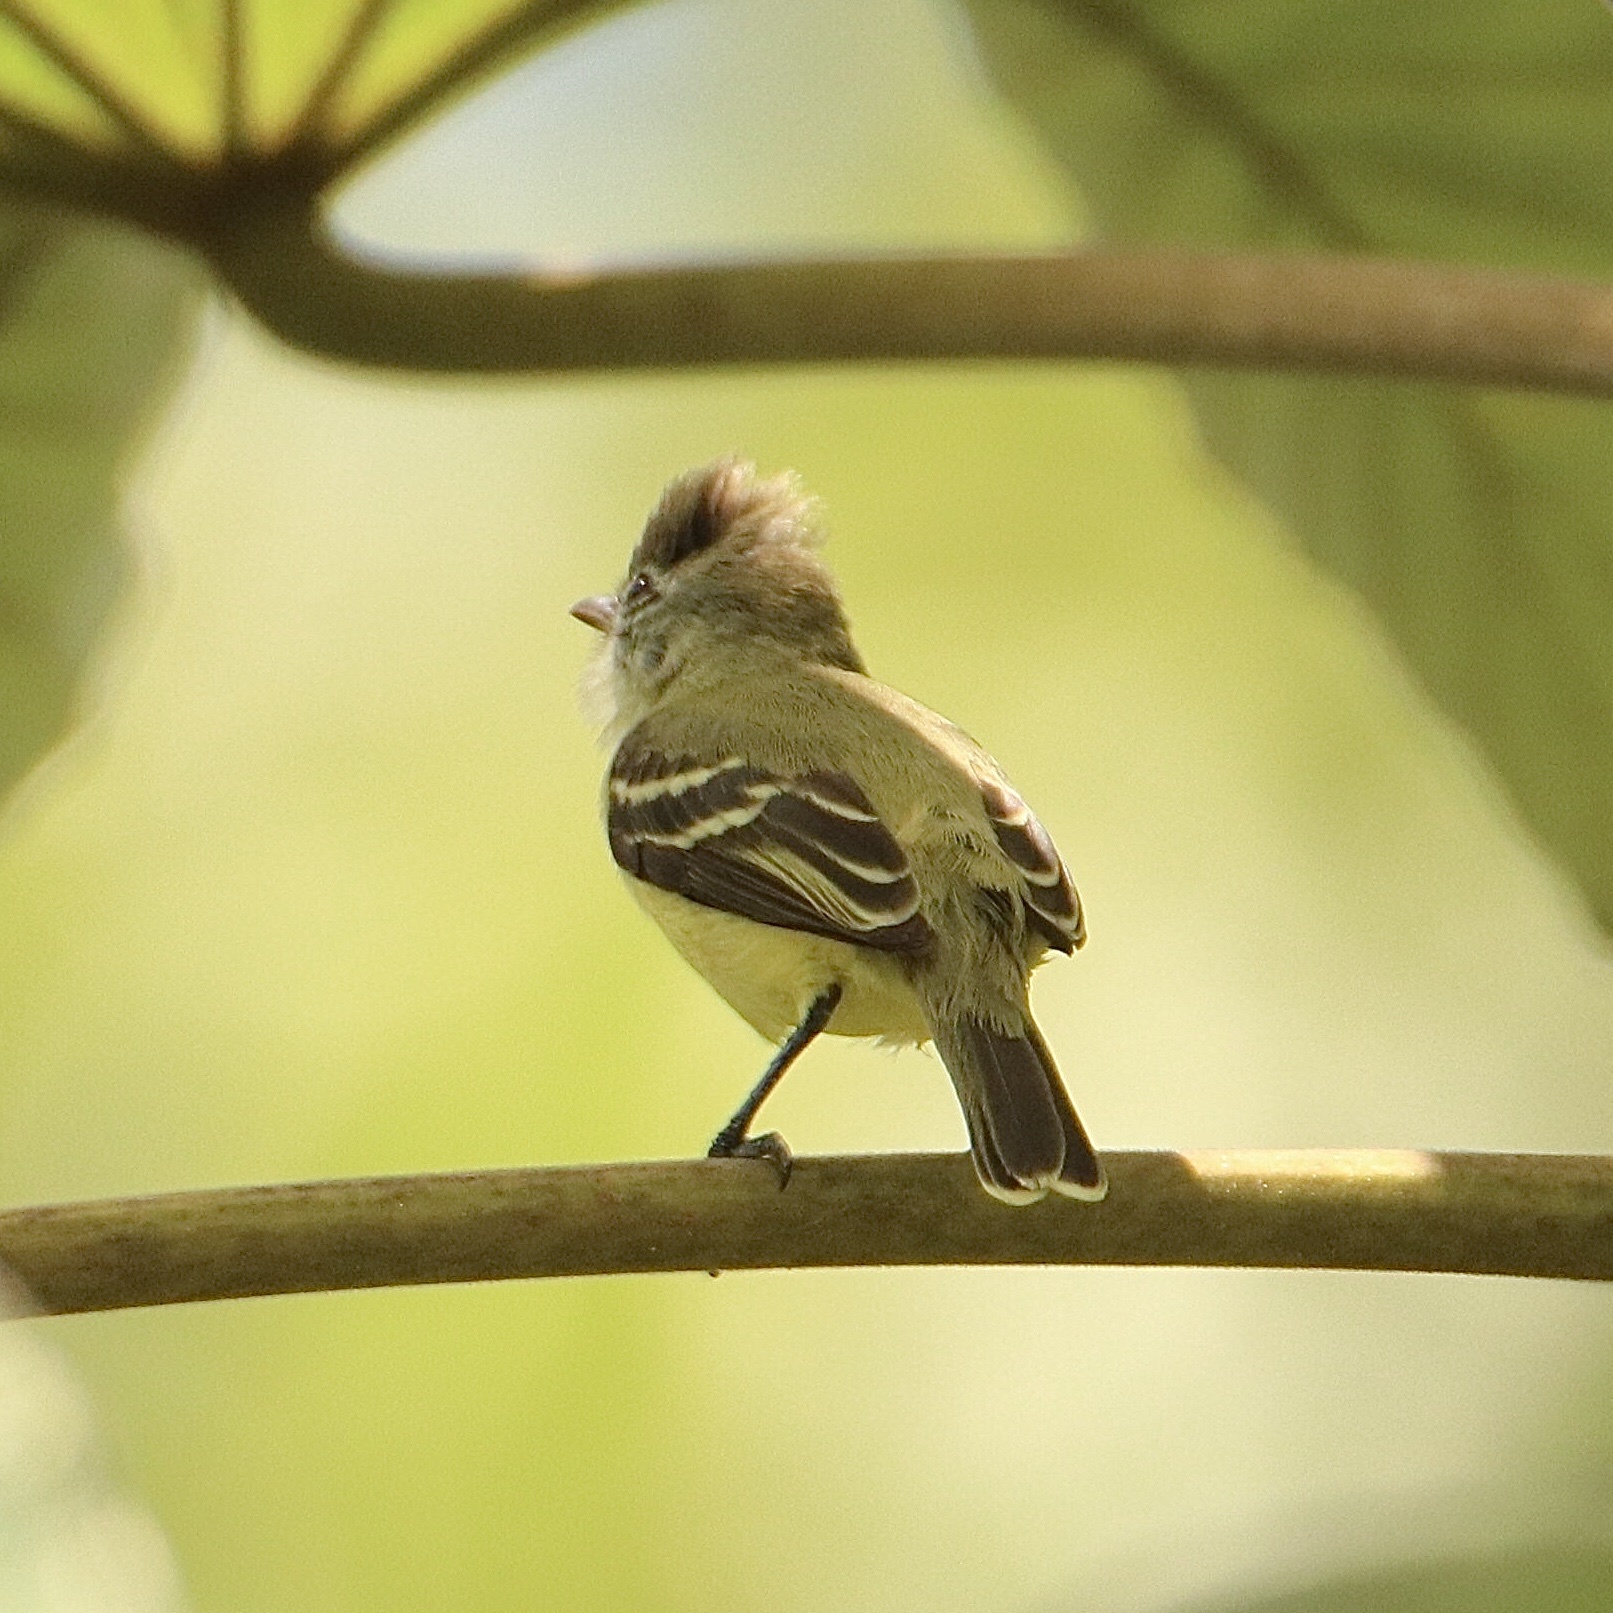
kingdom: Animalia
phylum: Chordata
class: Aves
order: Passeriformes
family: Tyrannidae
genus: Camptostoma
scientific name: Camptostoma obsoletum
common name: Southern beardless-tyrannulet
